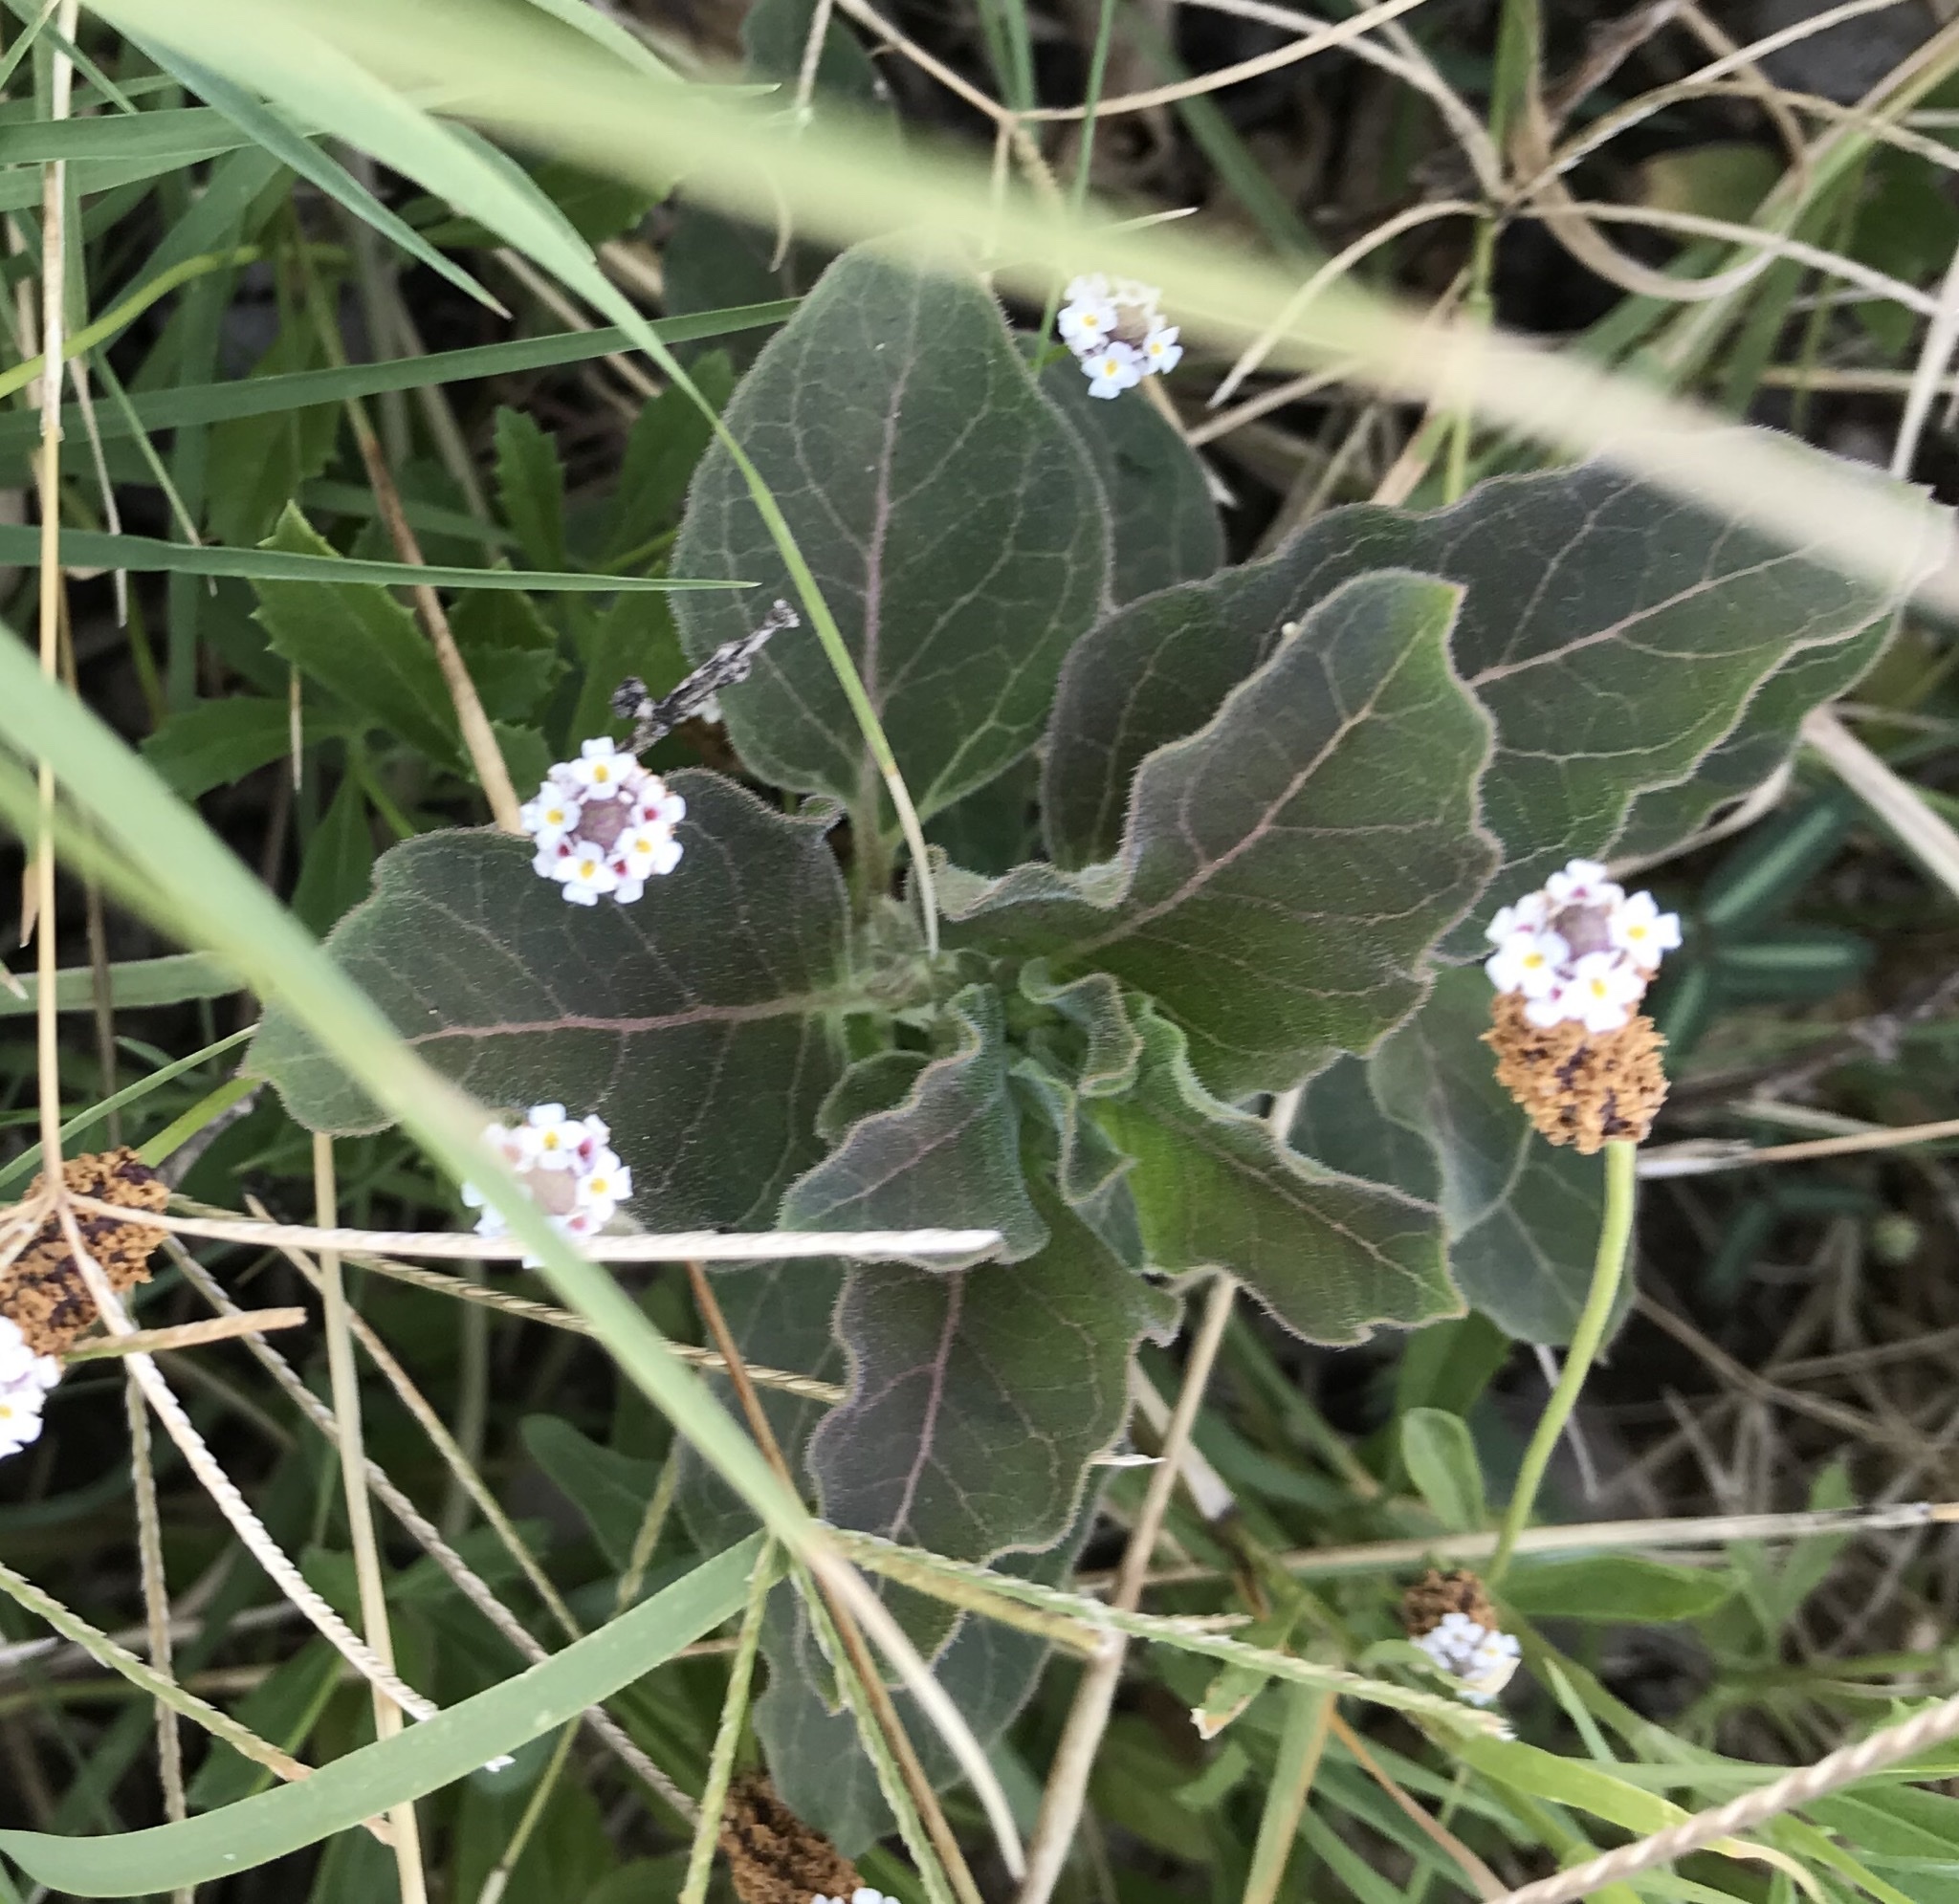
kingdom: Plantae
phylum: Tracheophyta
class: Magnoliopsida
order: Gentianales
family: Apocynaceae
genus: Asclepias
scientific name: Asclepias oenotheroides
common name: Zizotes milkweed
